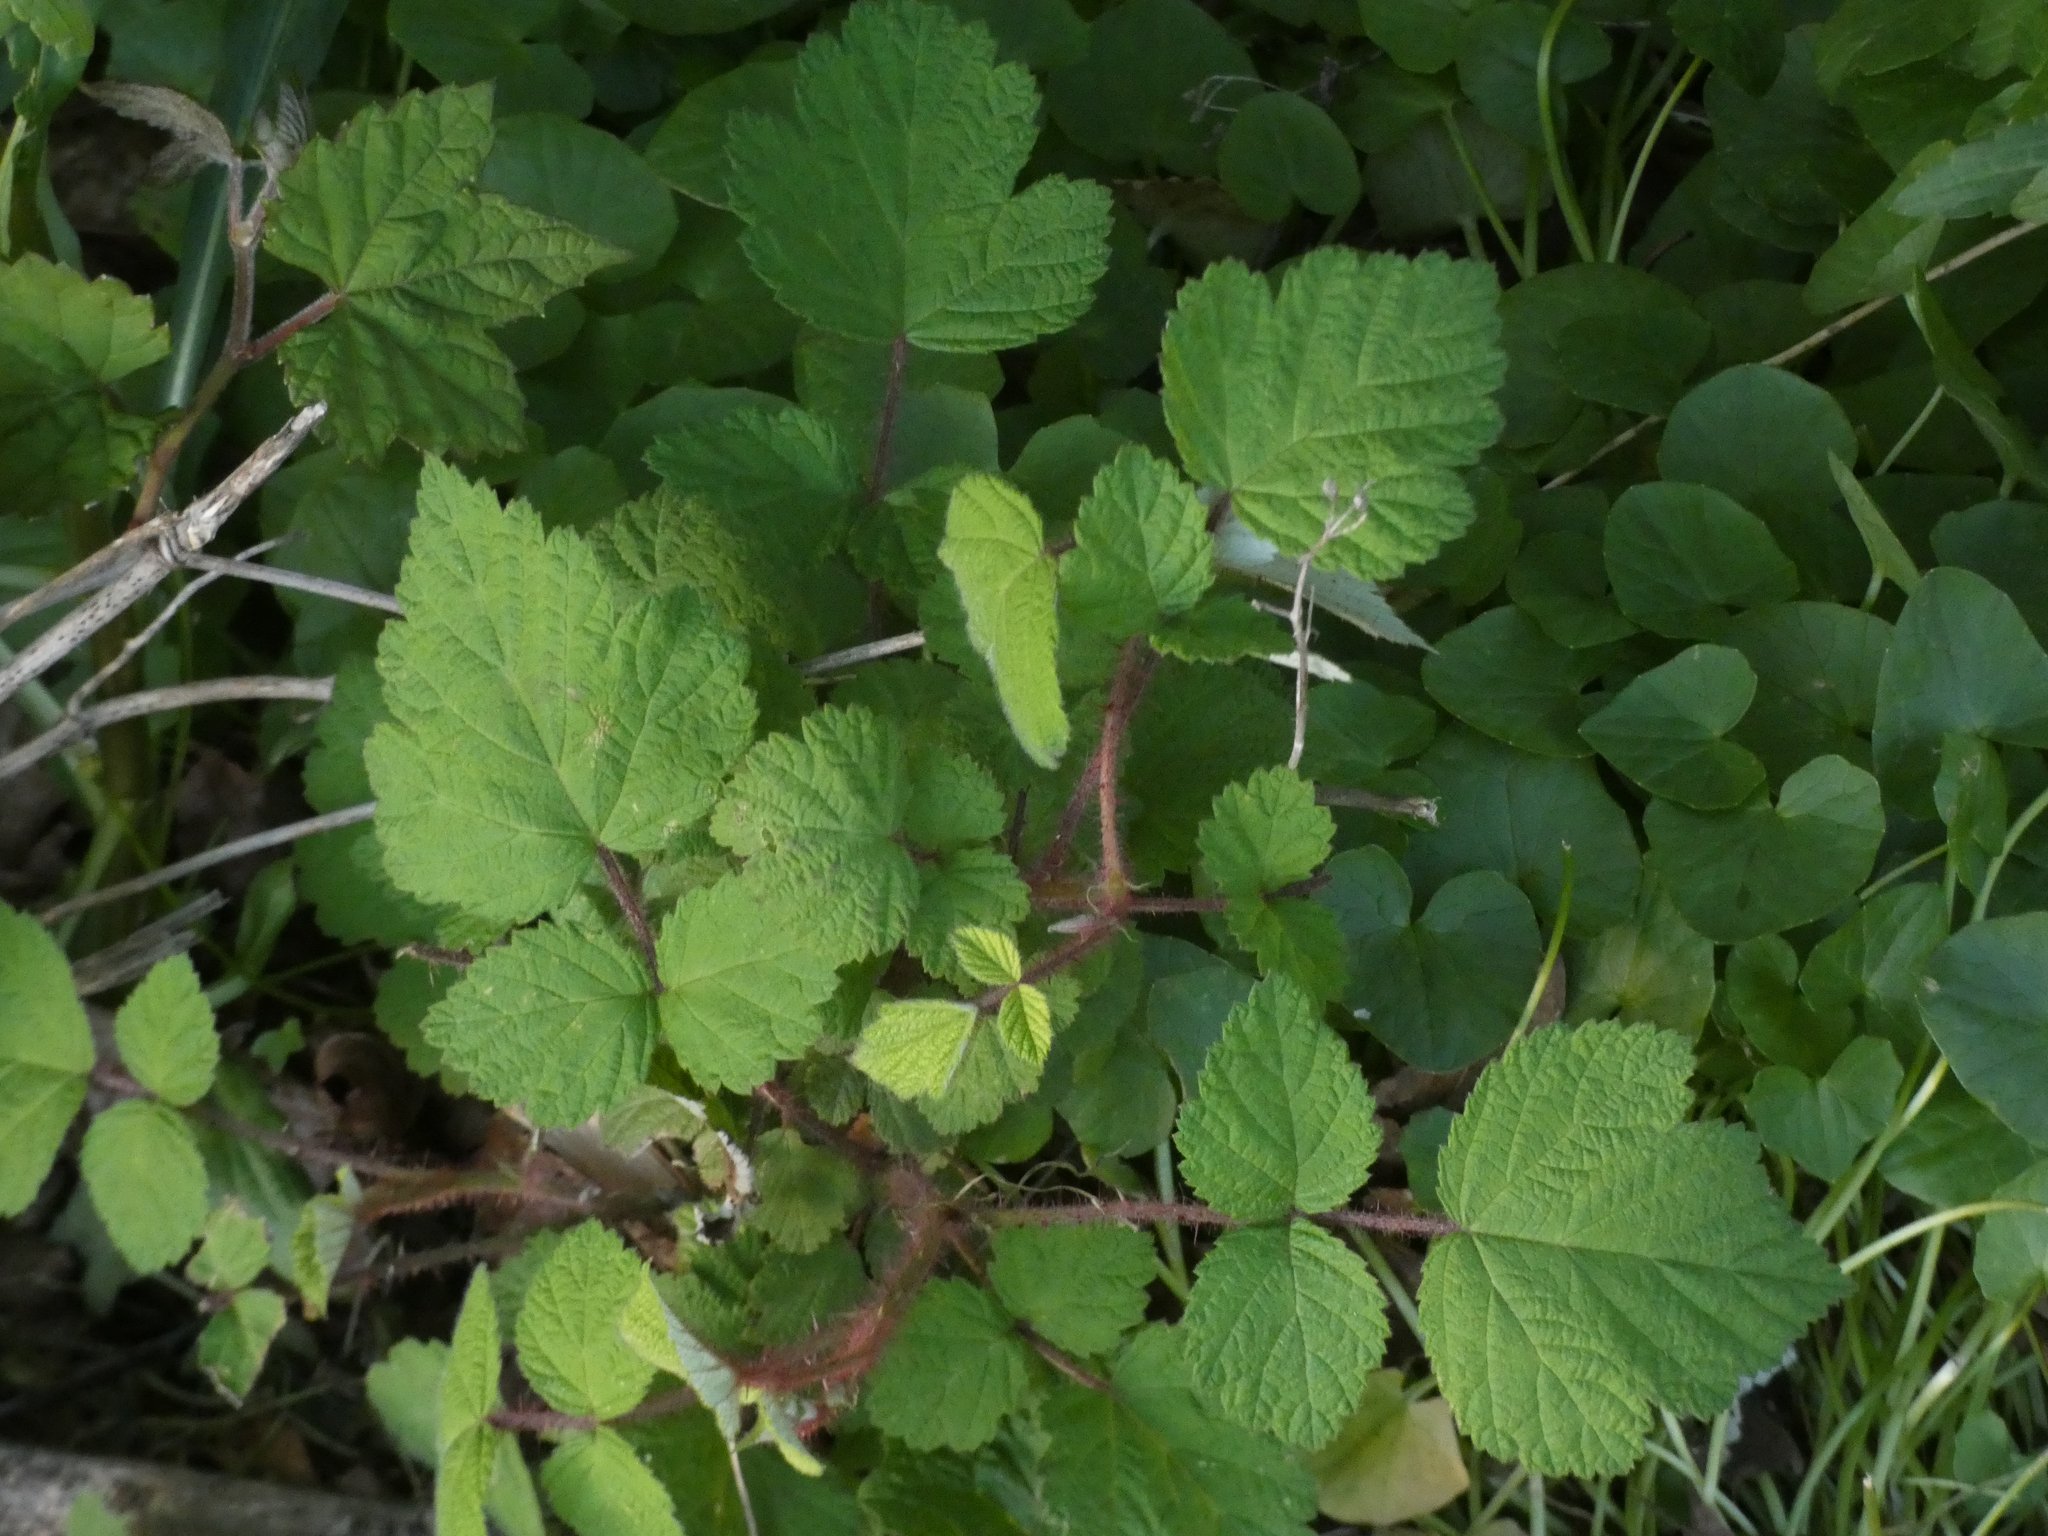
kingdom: Plantae
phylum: Tracheophyta
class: Magnoliopsida
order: Rosales
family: Rosaceae
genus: Rubus
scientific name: Rubus phoenicolasius
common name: Japanese wineberry
